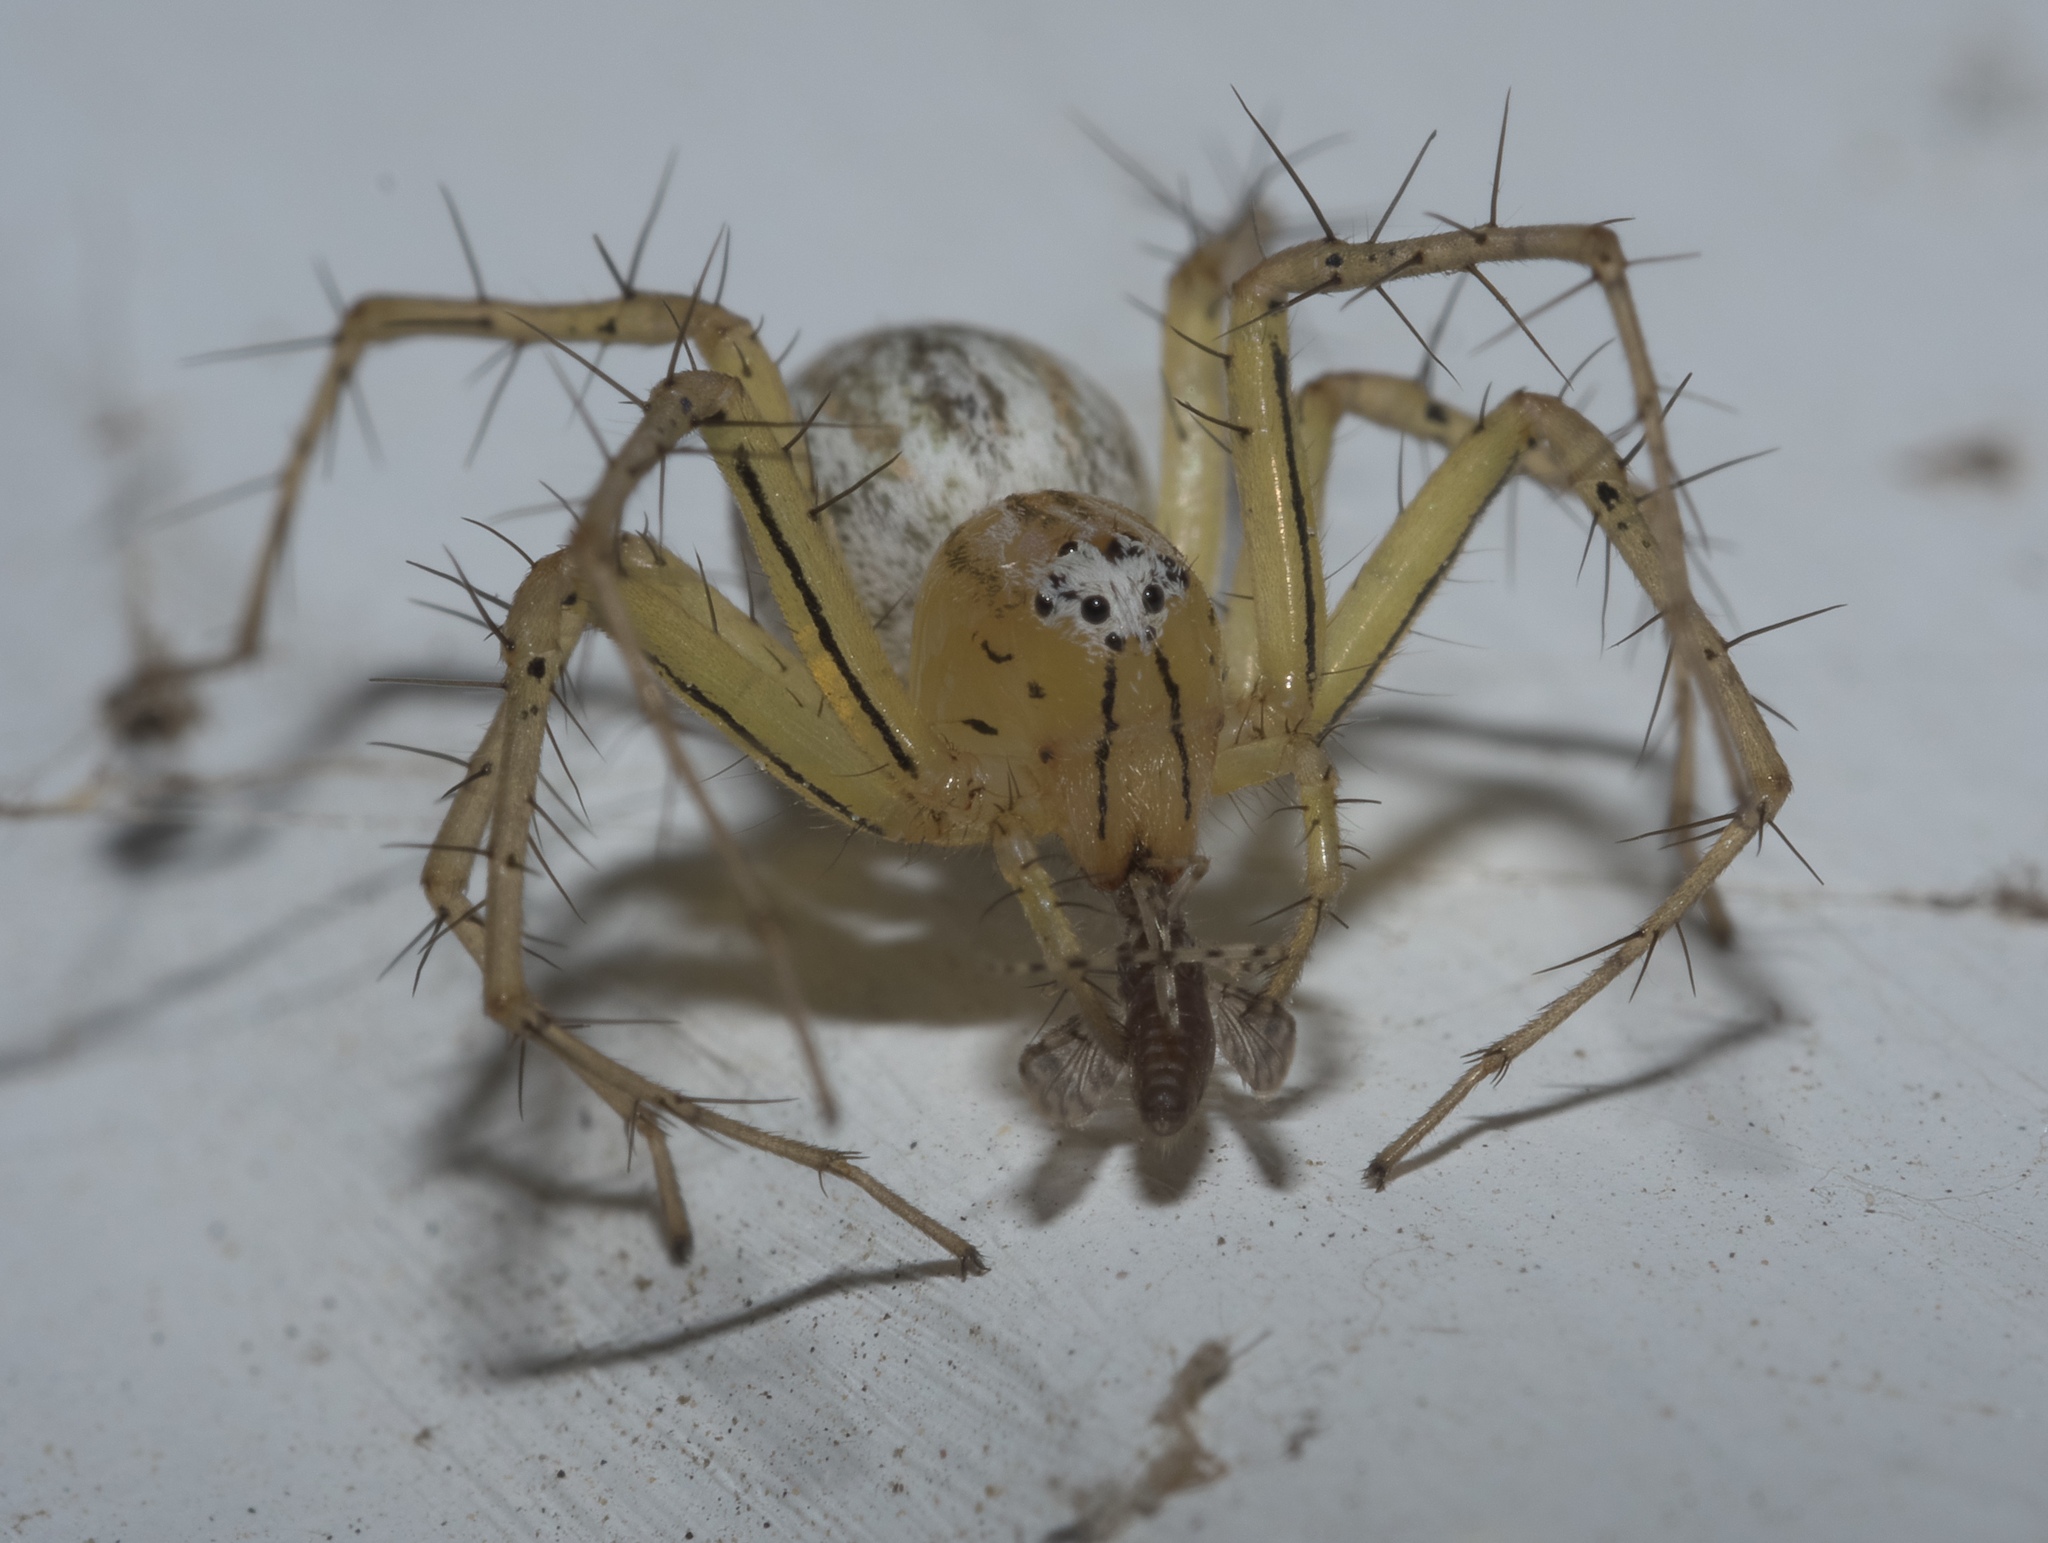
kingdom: Animalia
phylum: Arthropoda
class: Arachnida
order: Araneae
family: Oxyopidae
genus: Oxyopes
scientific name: Oxyopes salticus
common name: Lynx spiders
